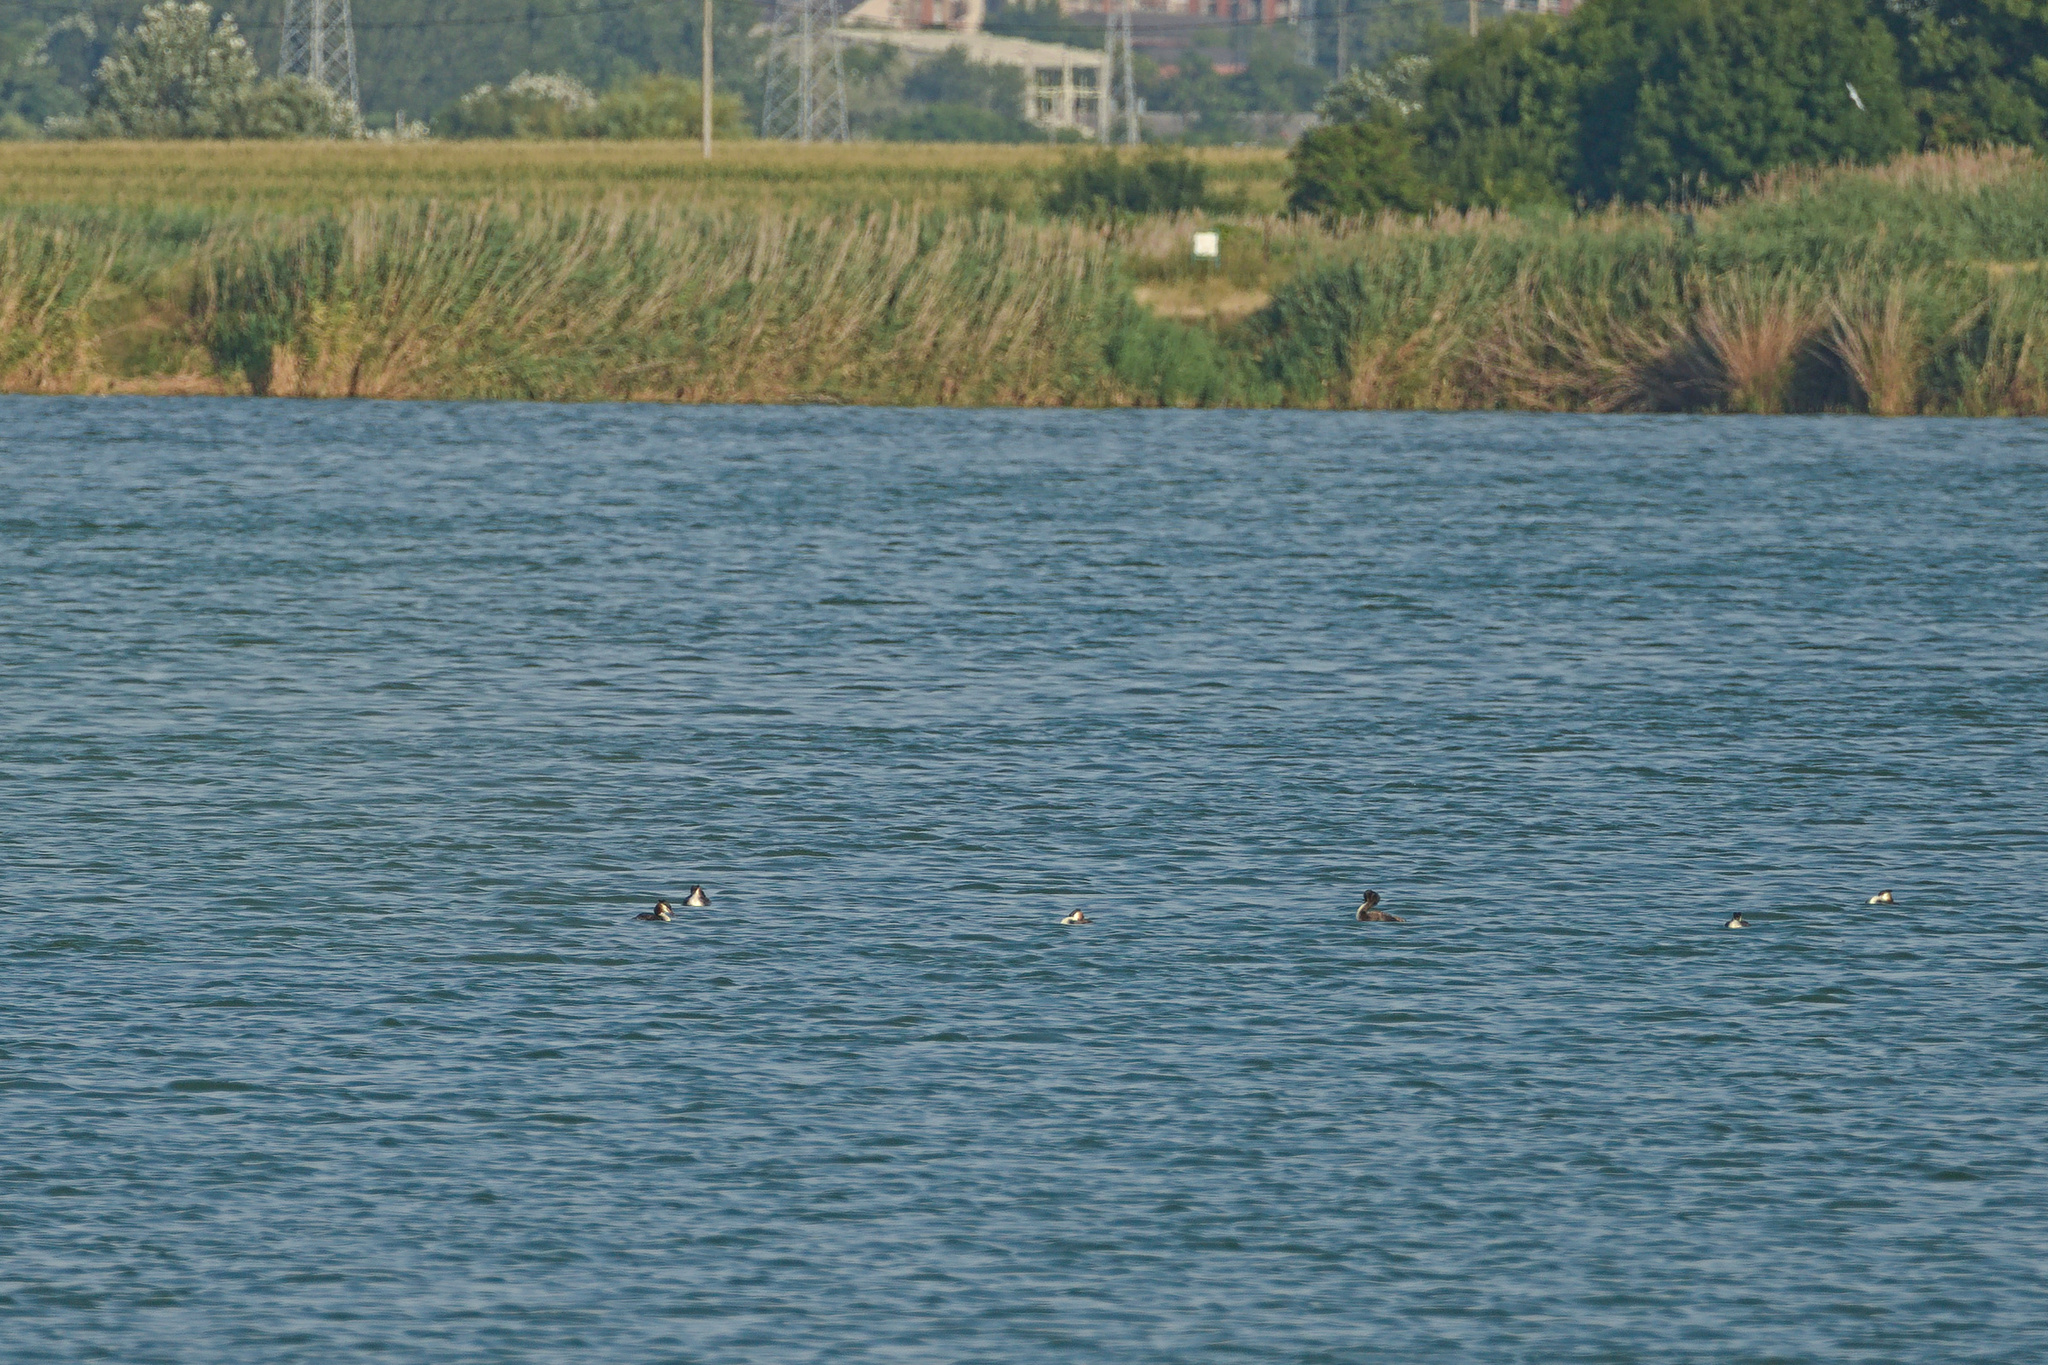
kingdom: Animalia
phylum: Chordata
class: Aves
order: Podicipediformes
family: Podicipedidae
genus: Podiceps
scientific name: Podiceps cristatus
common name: Great crested grebe
